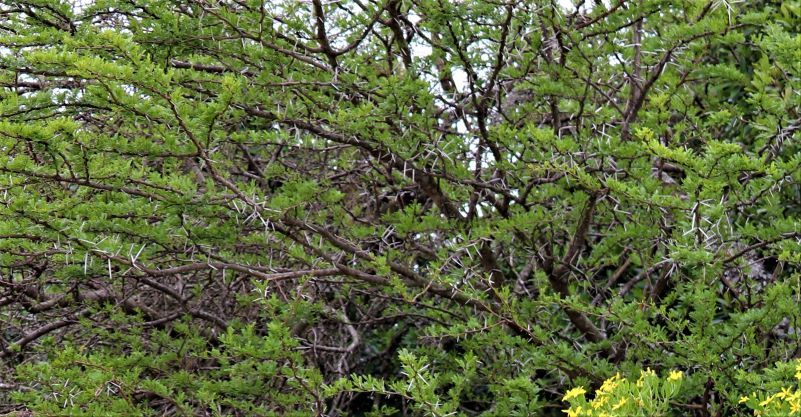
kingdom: Plantae
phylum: Tracheophyta
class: Magnoliopsida
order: Fabales
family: Fabaceae
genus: Vachellia
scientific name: Vachellia karroo
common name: Sweet thorn
